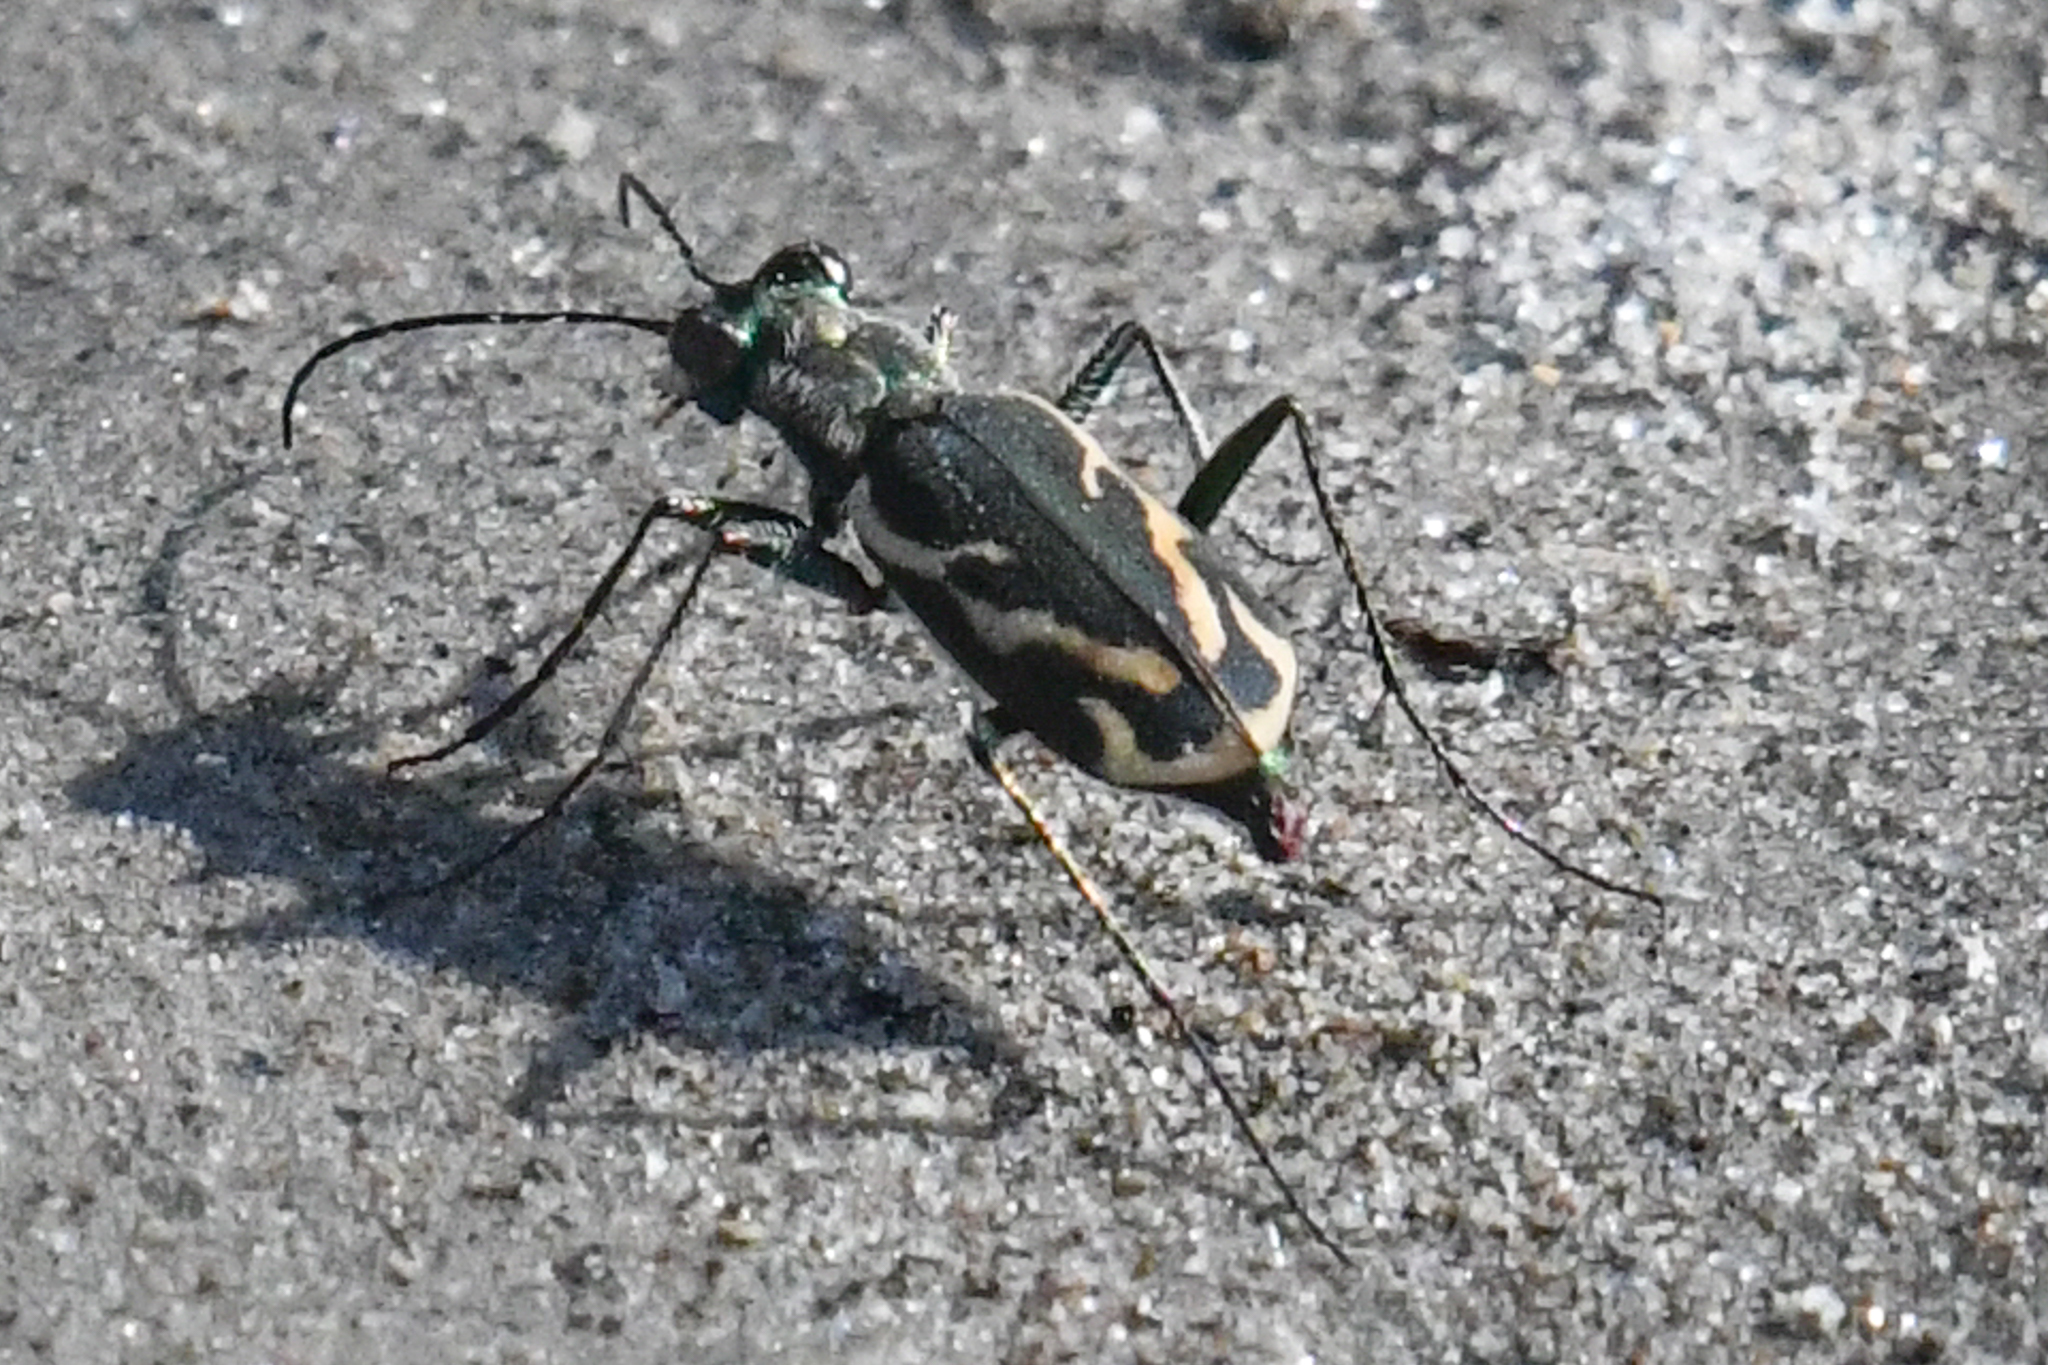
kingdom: Animalia
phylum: Arthropoda
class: Insecta
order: Coleoptera
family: Carabidae
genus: Cylindera
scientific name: Cylindera terricola
